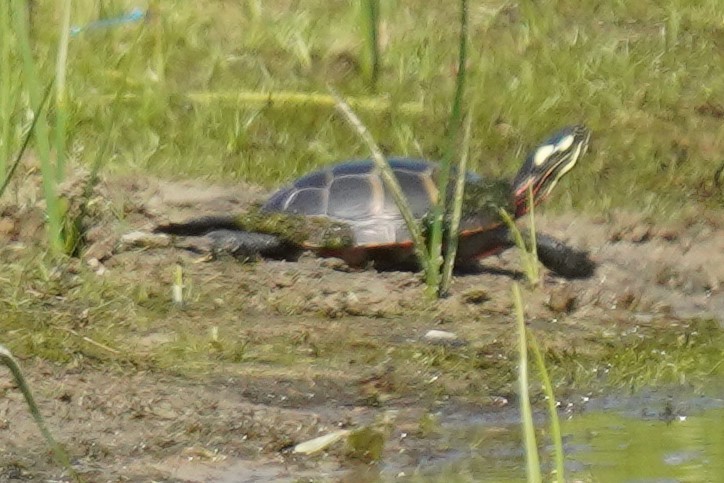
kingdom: Animalia
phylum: Chordata
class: Testudines
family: Emydidae
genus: Chrysemys
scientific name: Chrysemys picta
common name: Painted turtle
